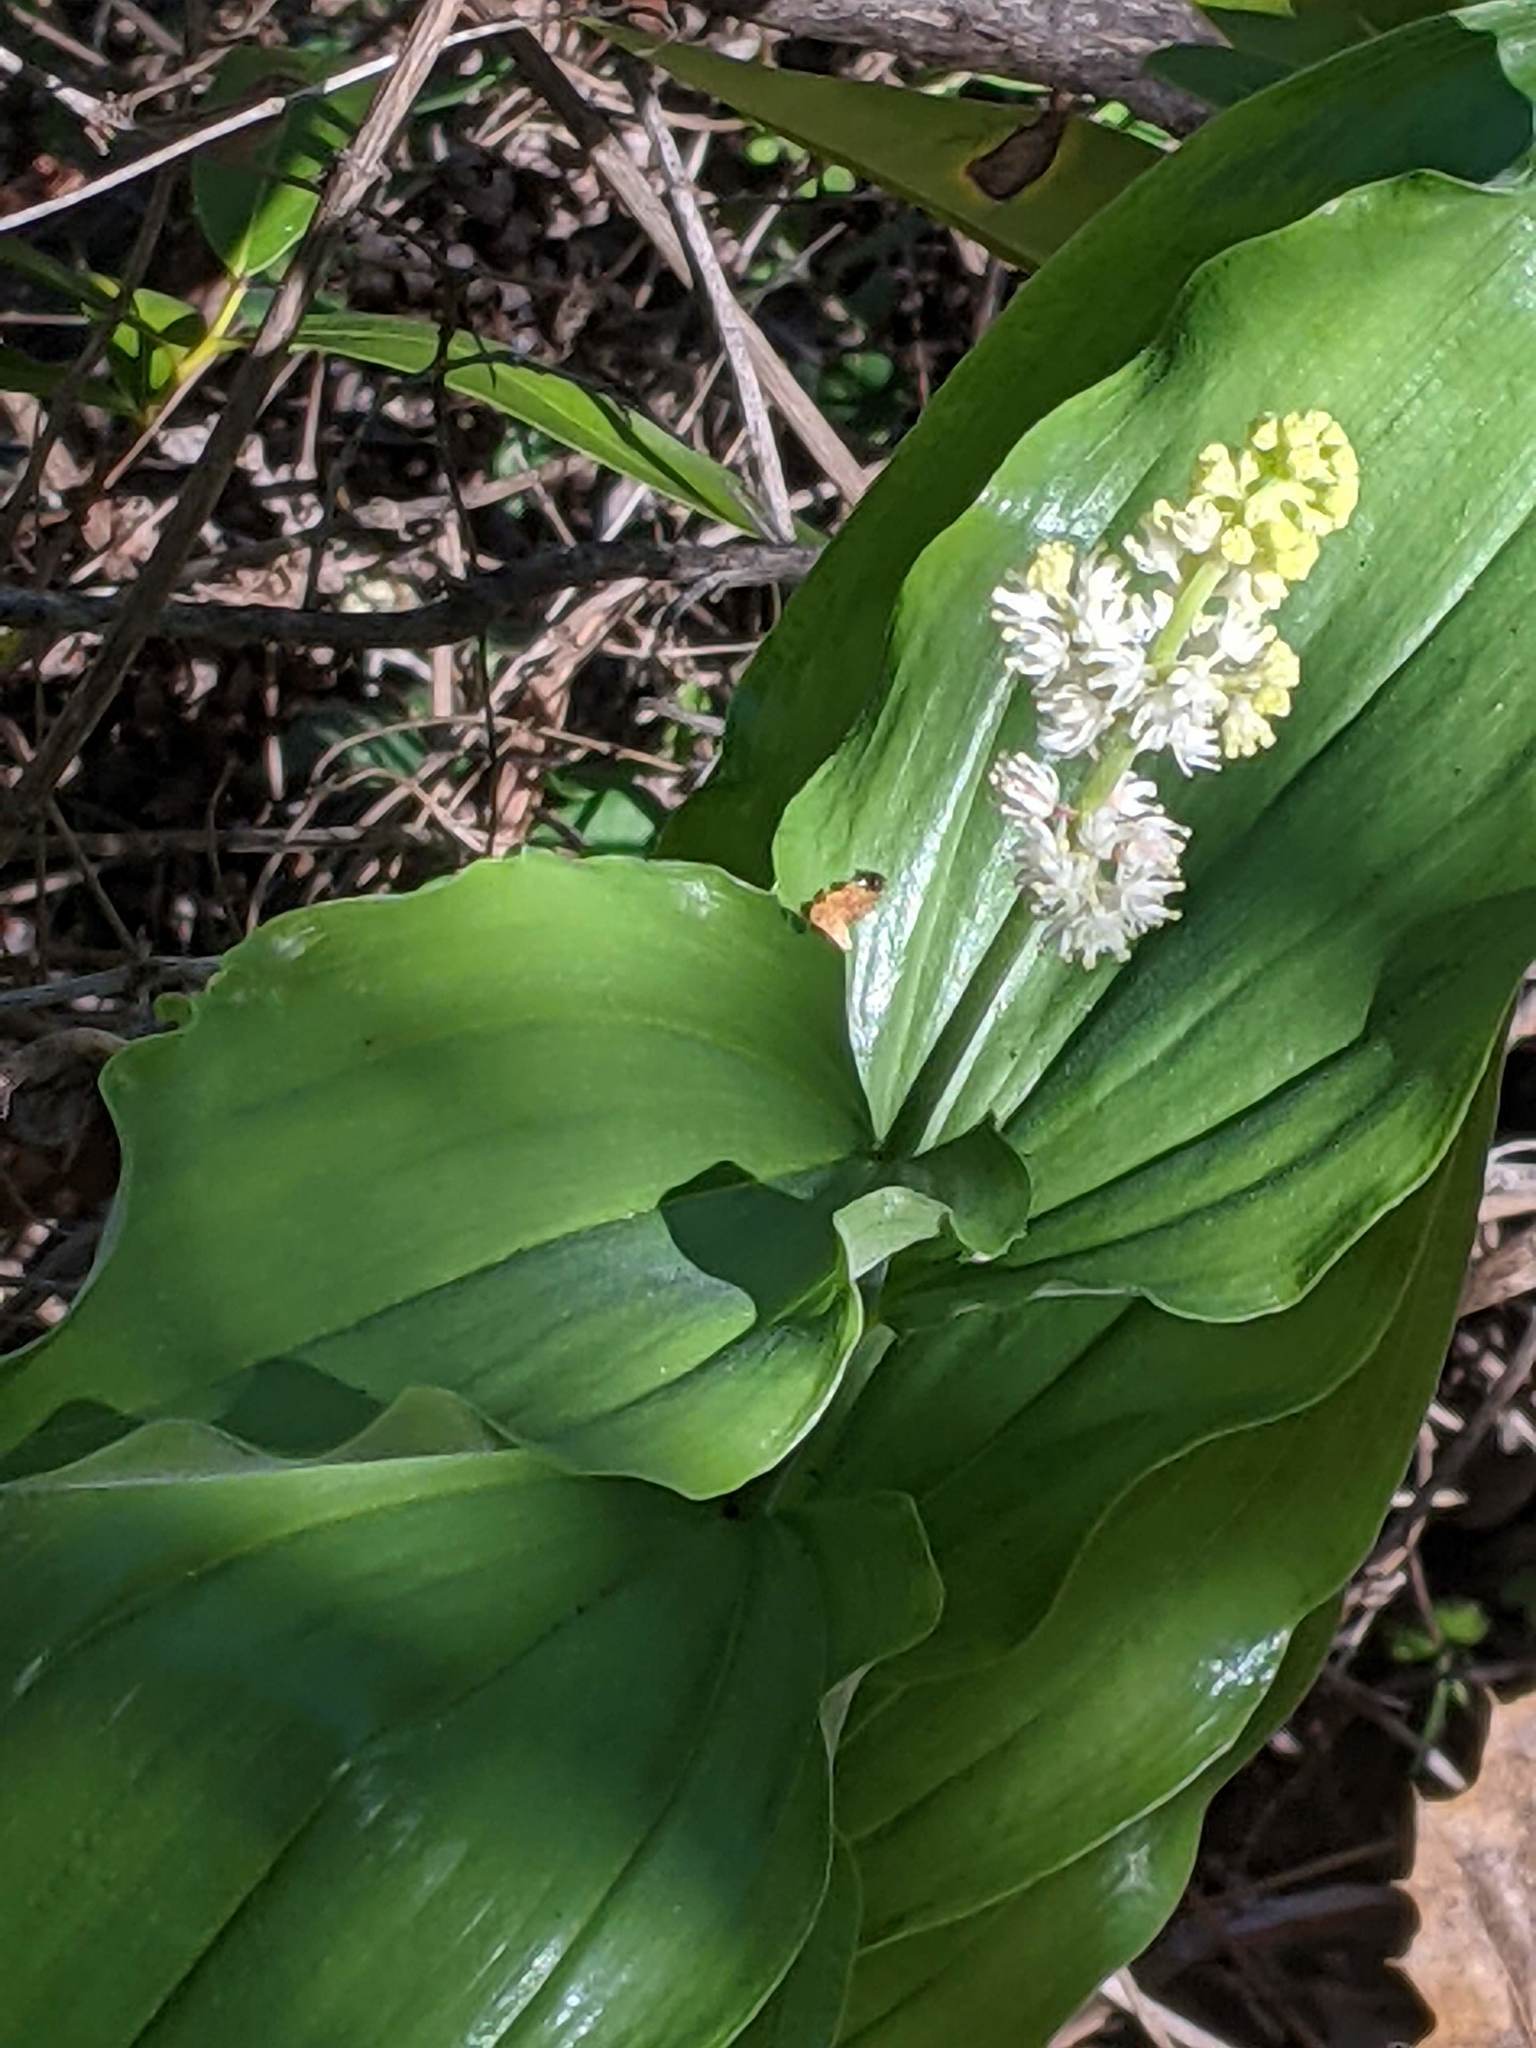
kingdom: Plantae
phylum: Tracheophyta
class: Liliopsida
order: Asparagales
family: Asparagaceae
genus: Maianthemum
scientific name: Maianthemum racemosum
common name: False spikenard
